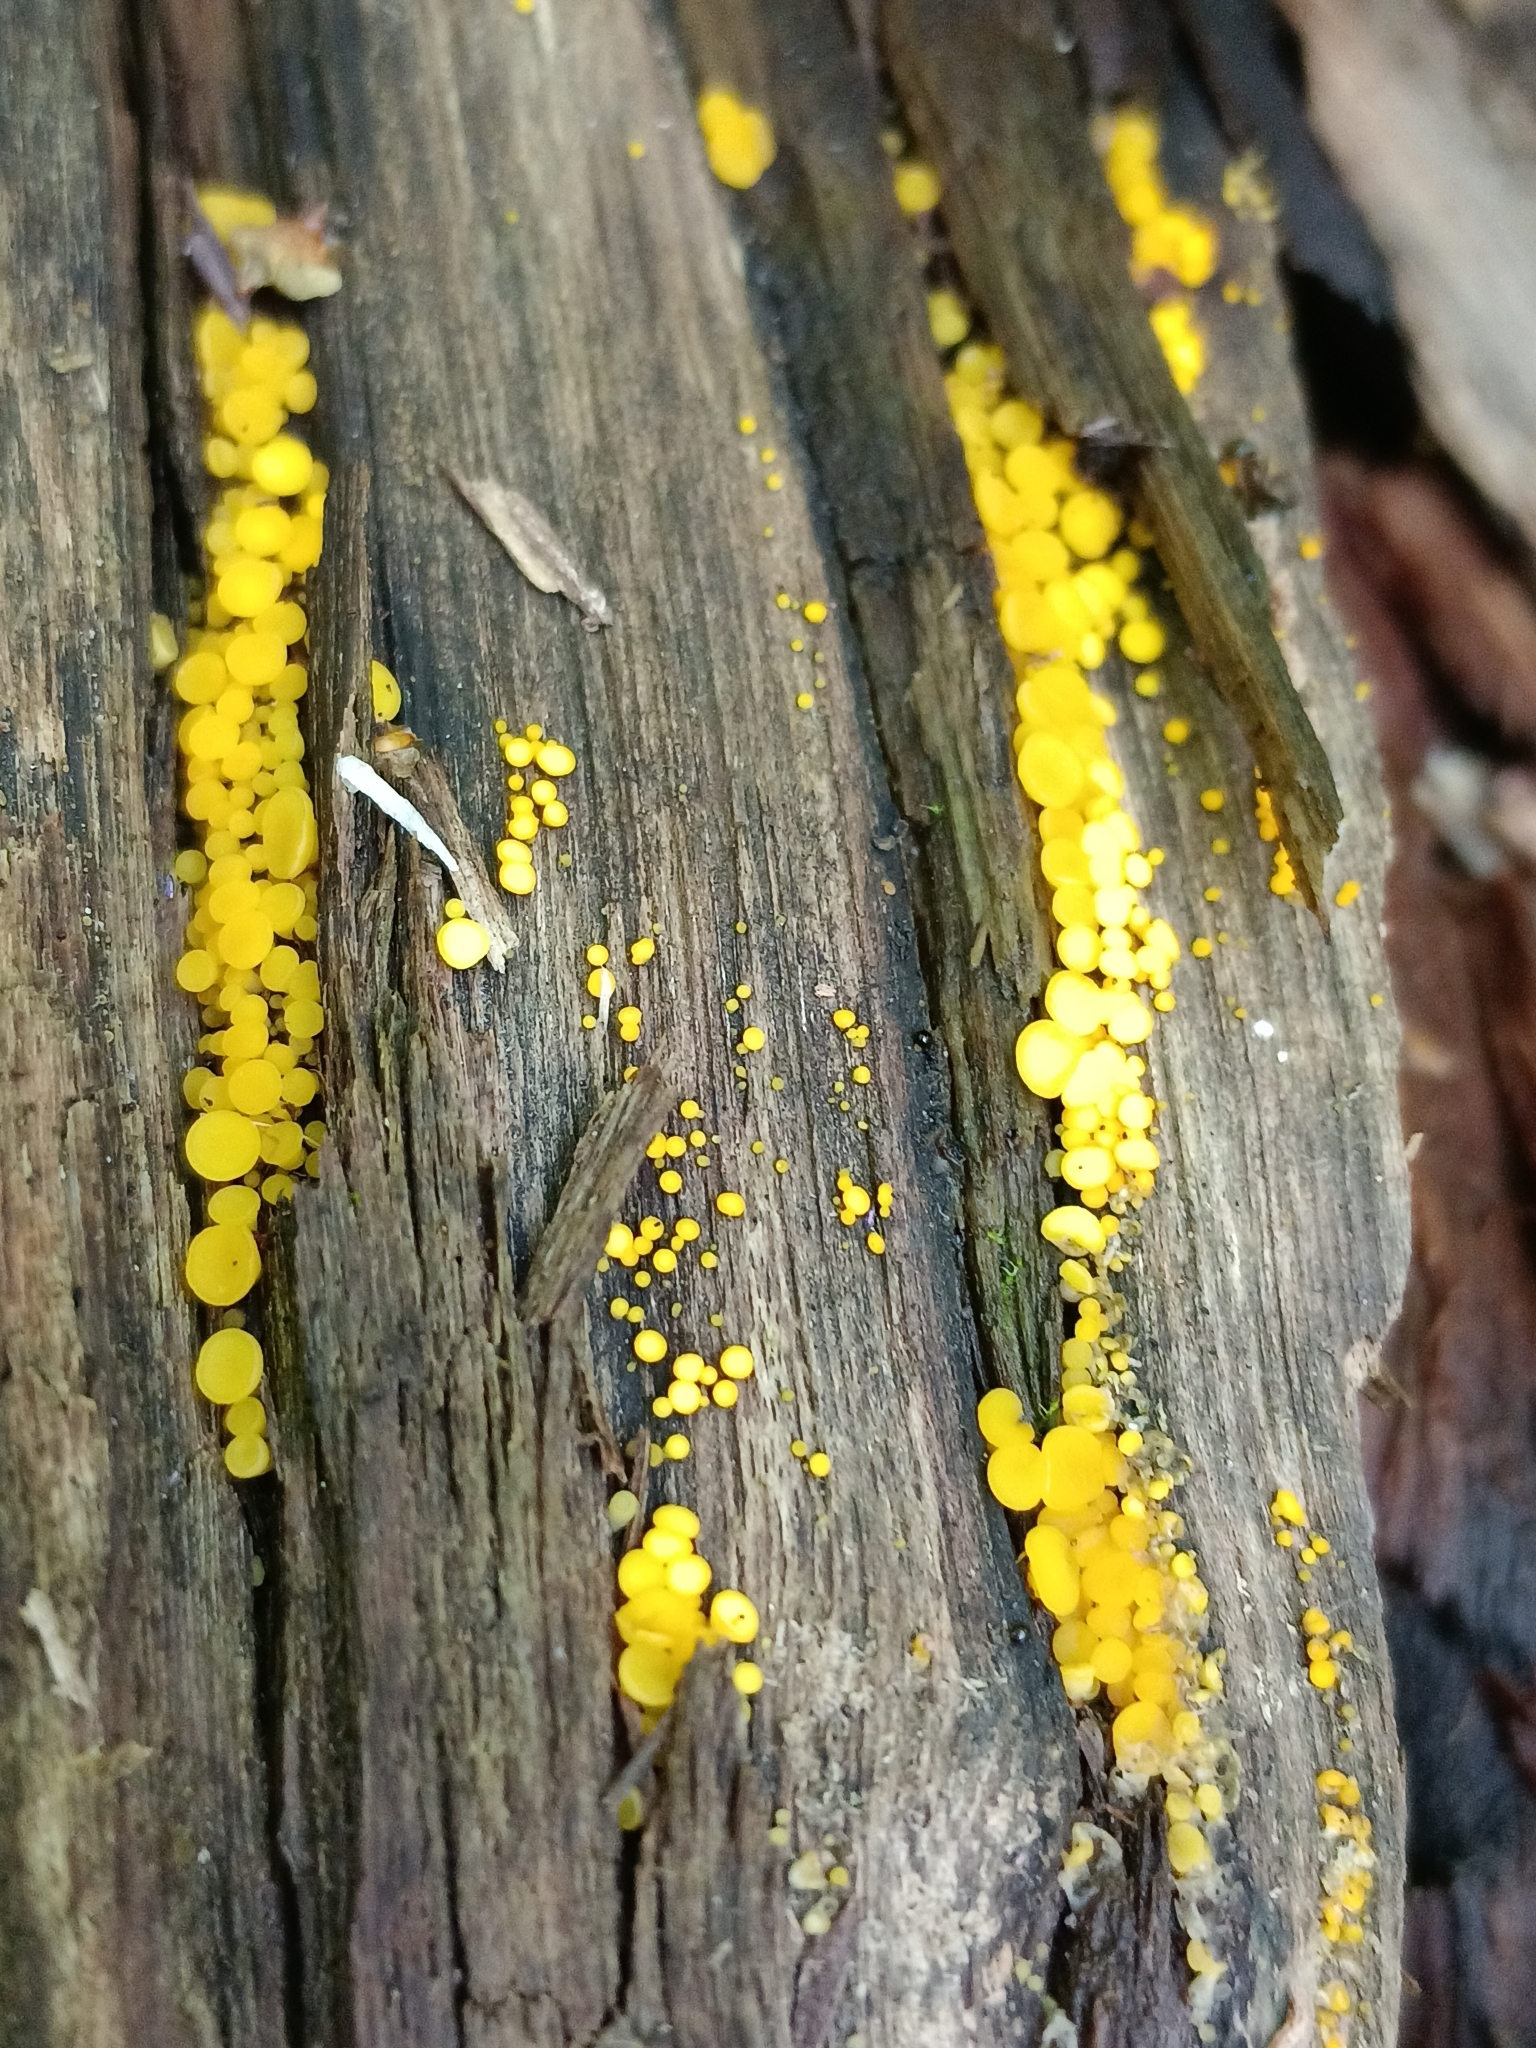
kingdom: Fungi
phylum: Ascomycota
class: Leotiomycetes
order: Helotiales
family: Pezizellaceae
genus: Calycina
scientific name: Calycina citrina
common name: Yellow fairy cups
